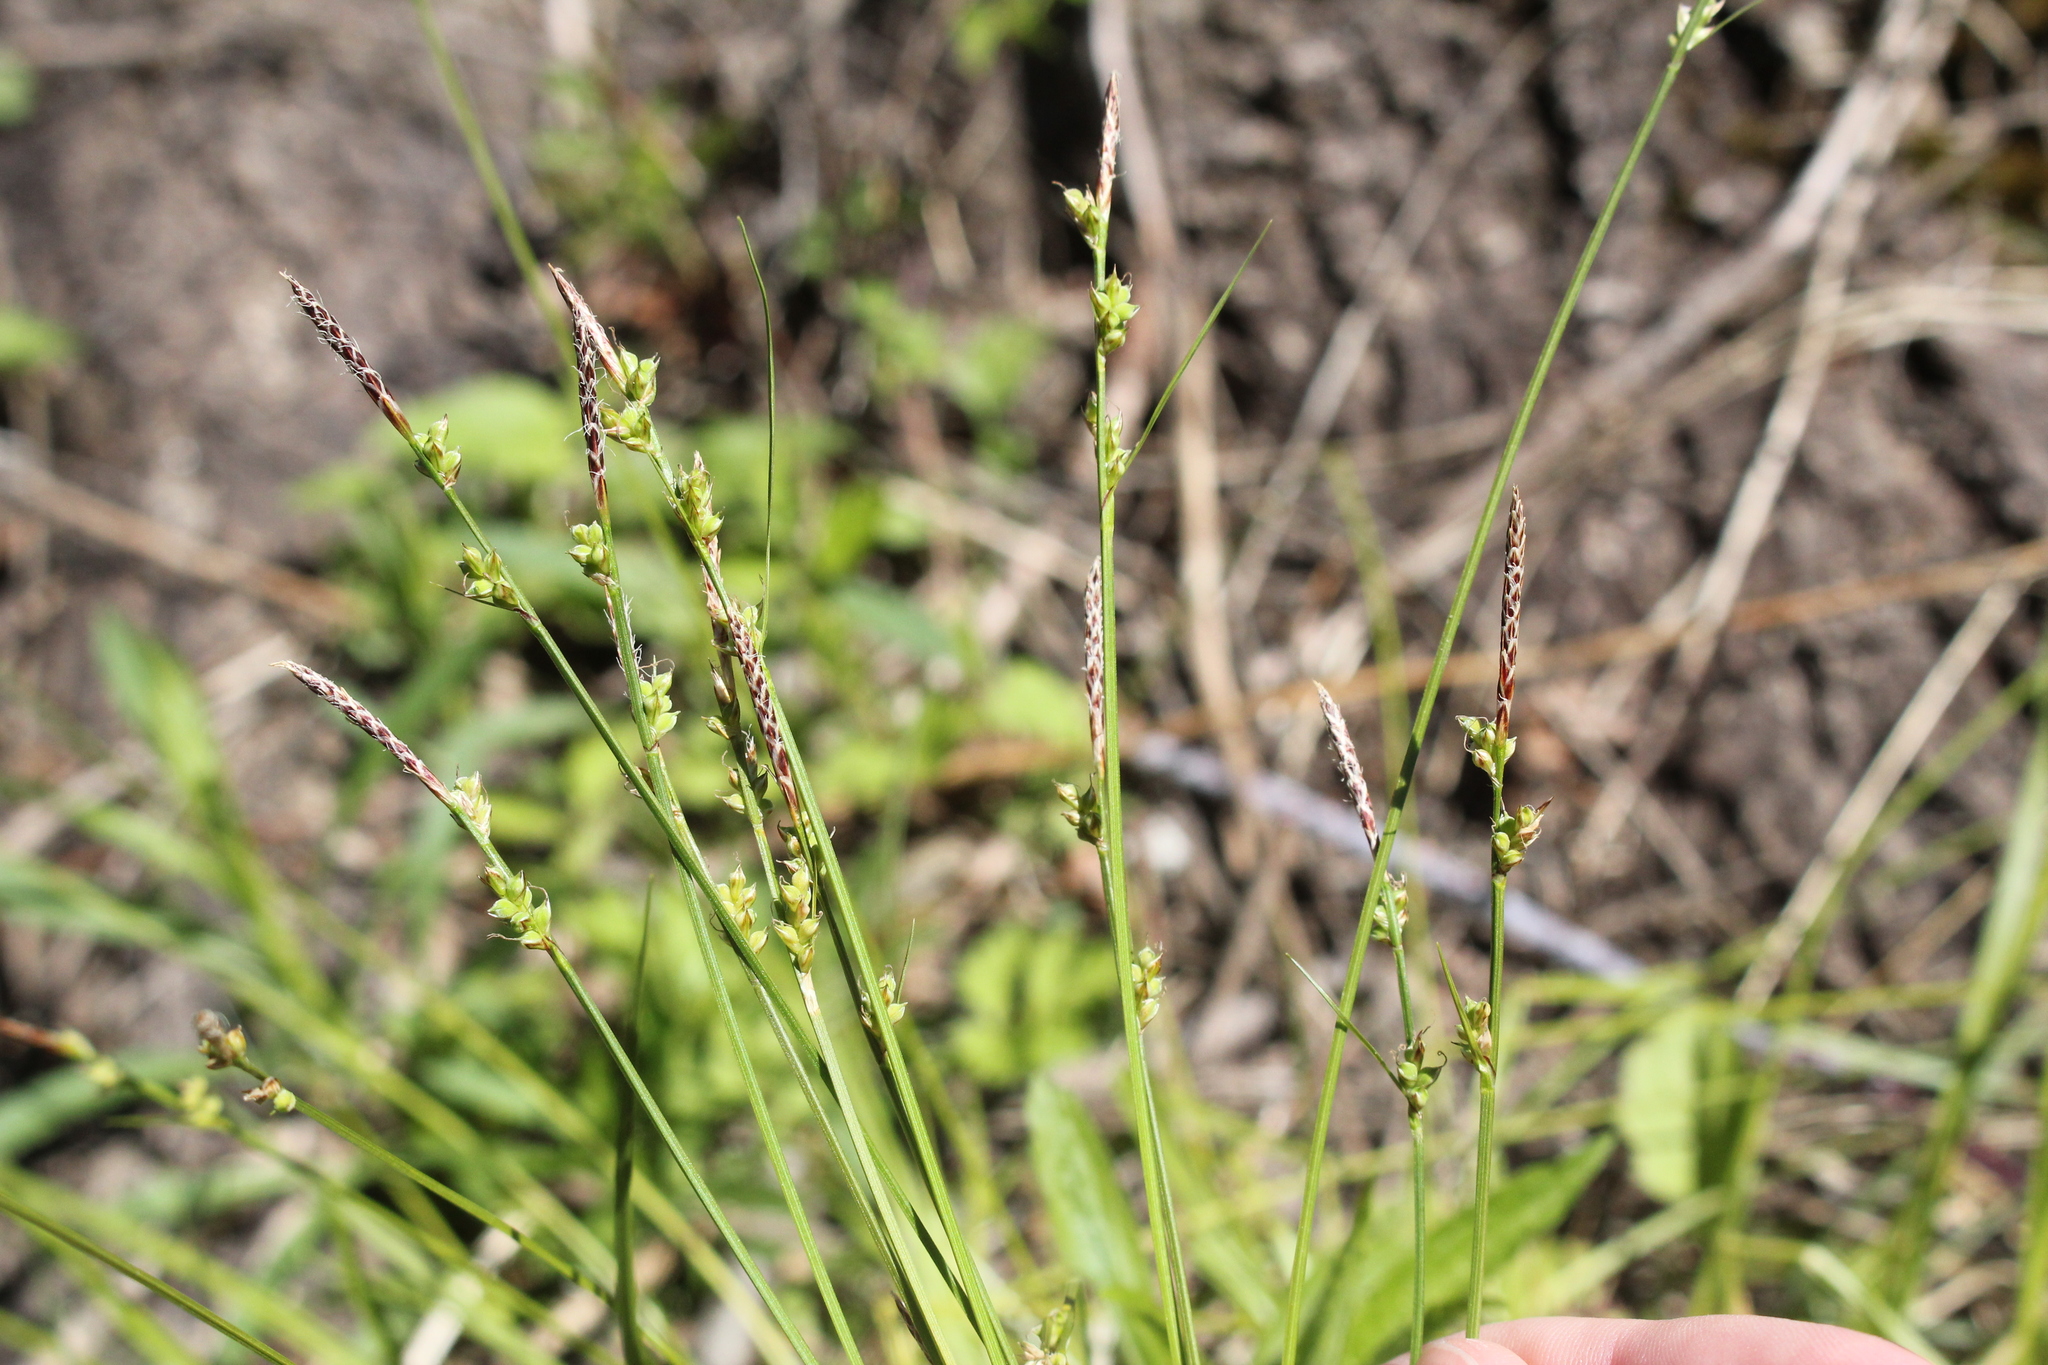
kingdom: Plantae
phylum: Tracheophyta
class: Liliopsida
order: Poales
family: Cyperaceae
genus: Carex
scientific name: Carex communis
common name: Colonial oak sedge
